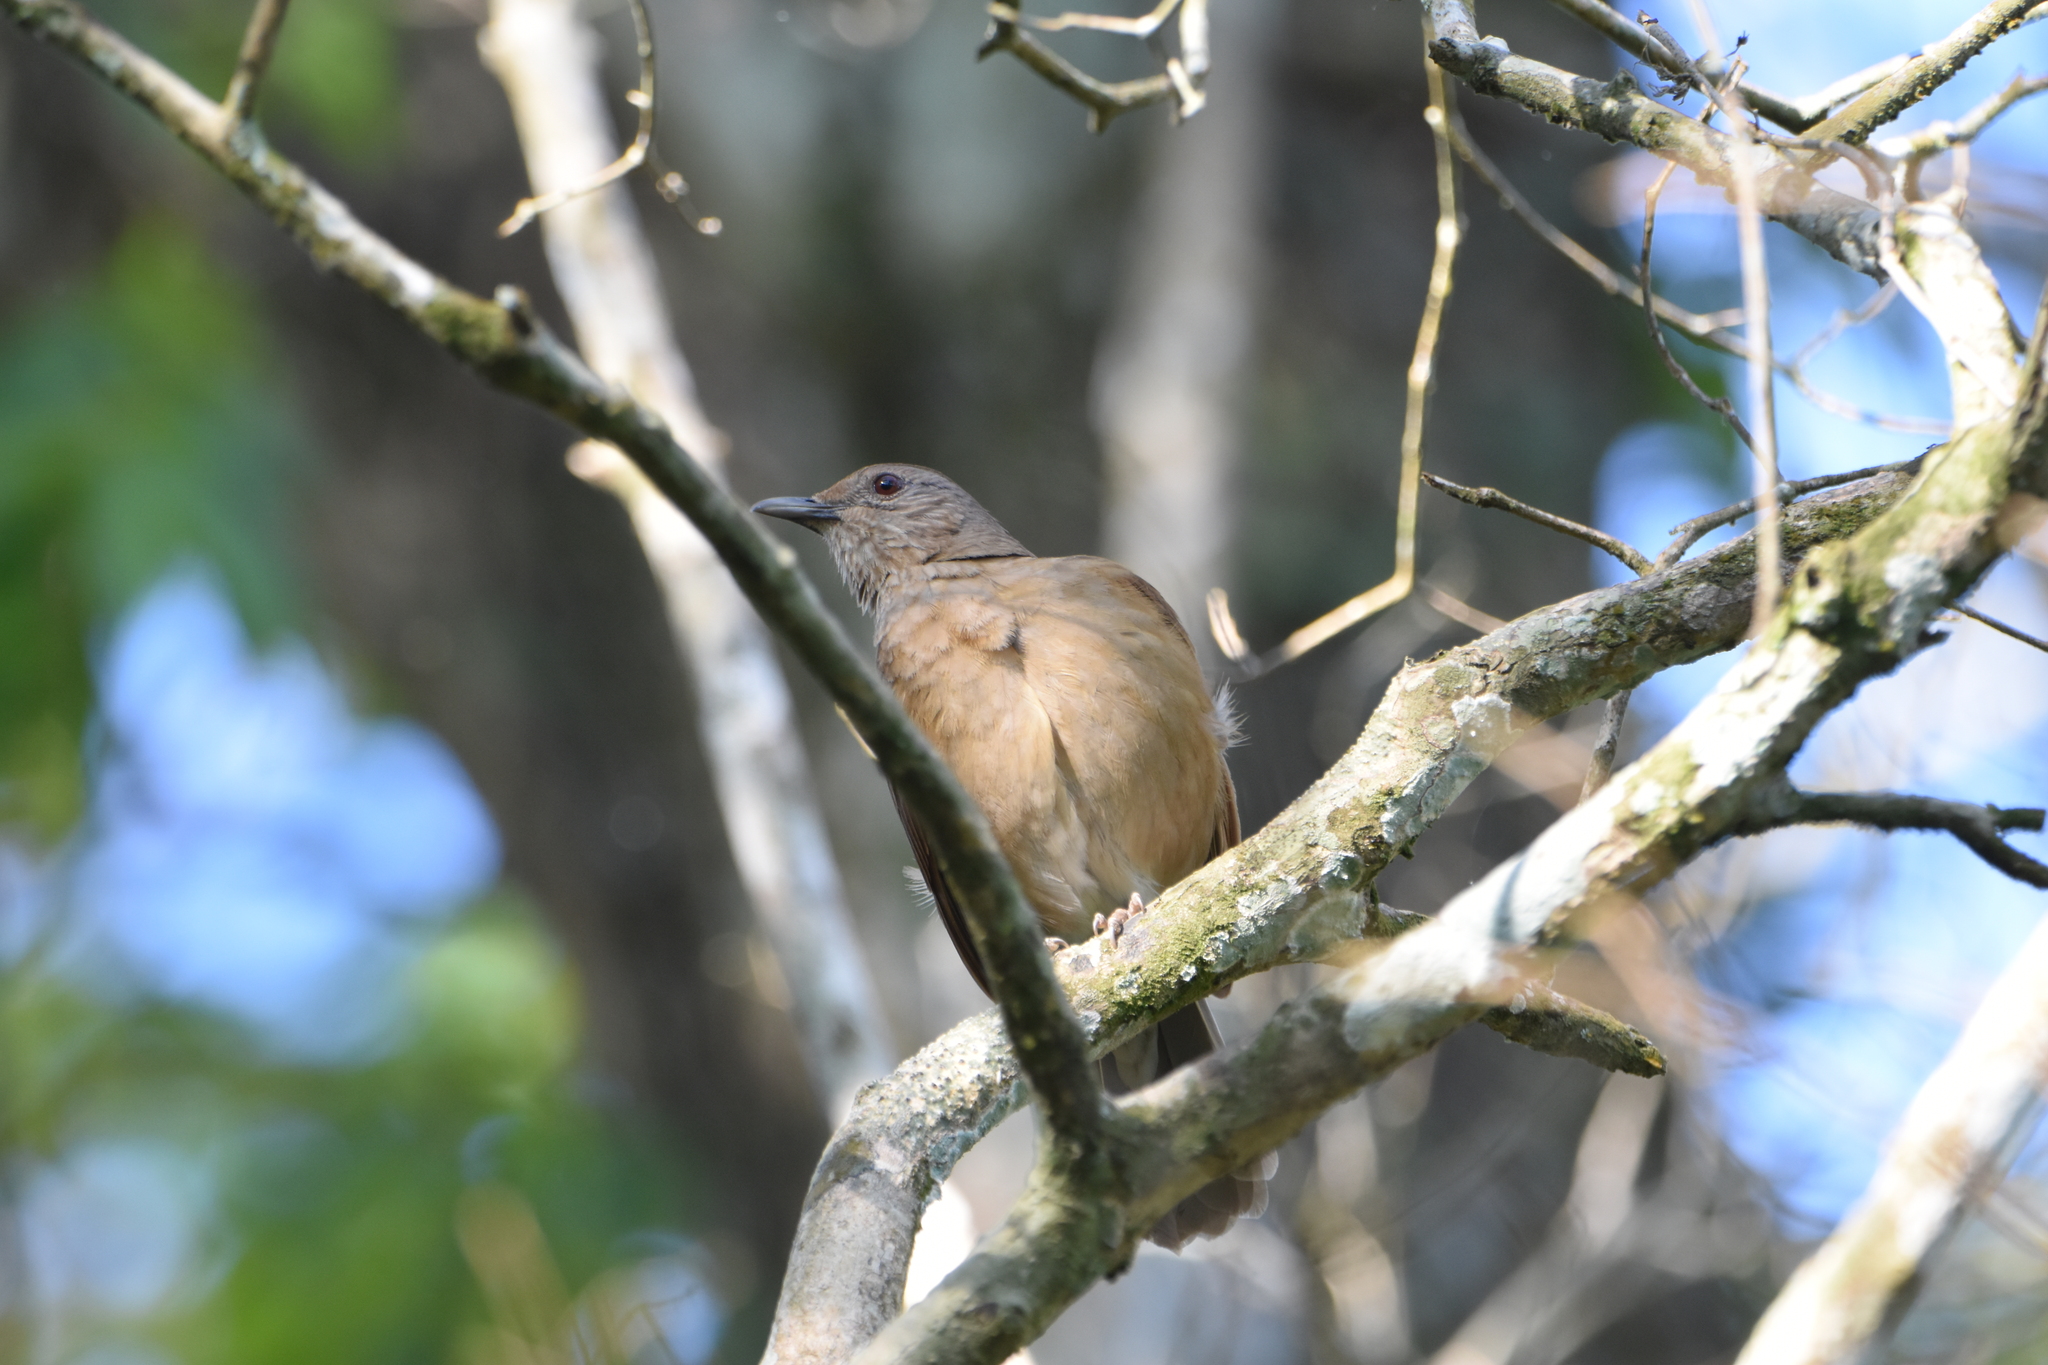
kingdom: Animalia
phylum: Chordata
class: Aves
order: Passeriformes
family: Turdidae
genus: Turdus
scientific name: Turdus leucomelas
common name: Pale-breasted thrush
